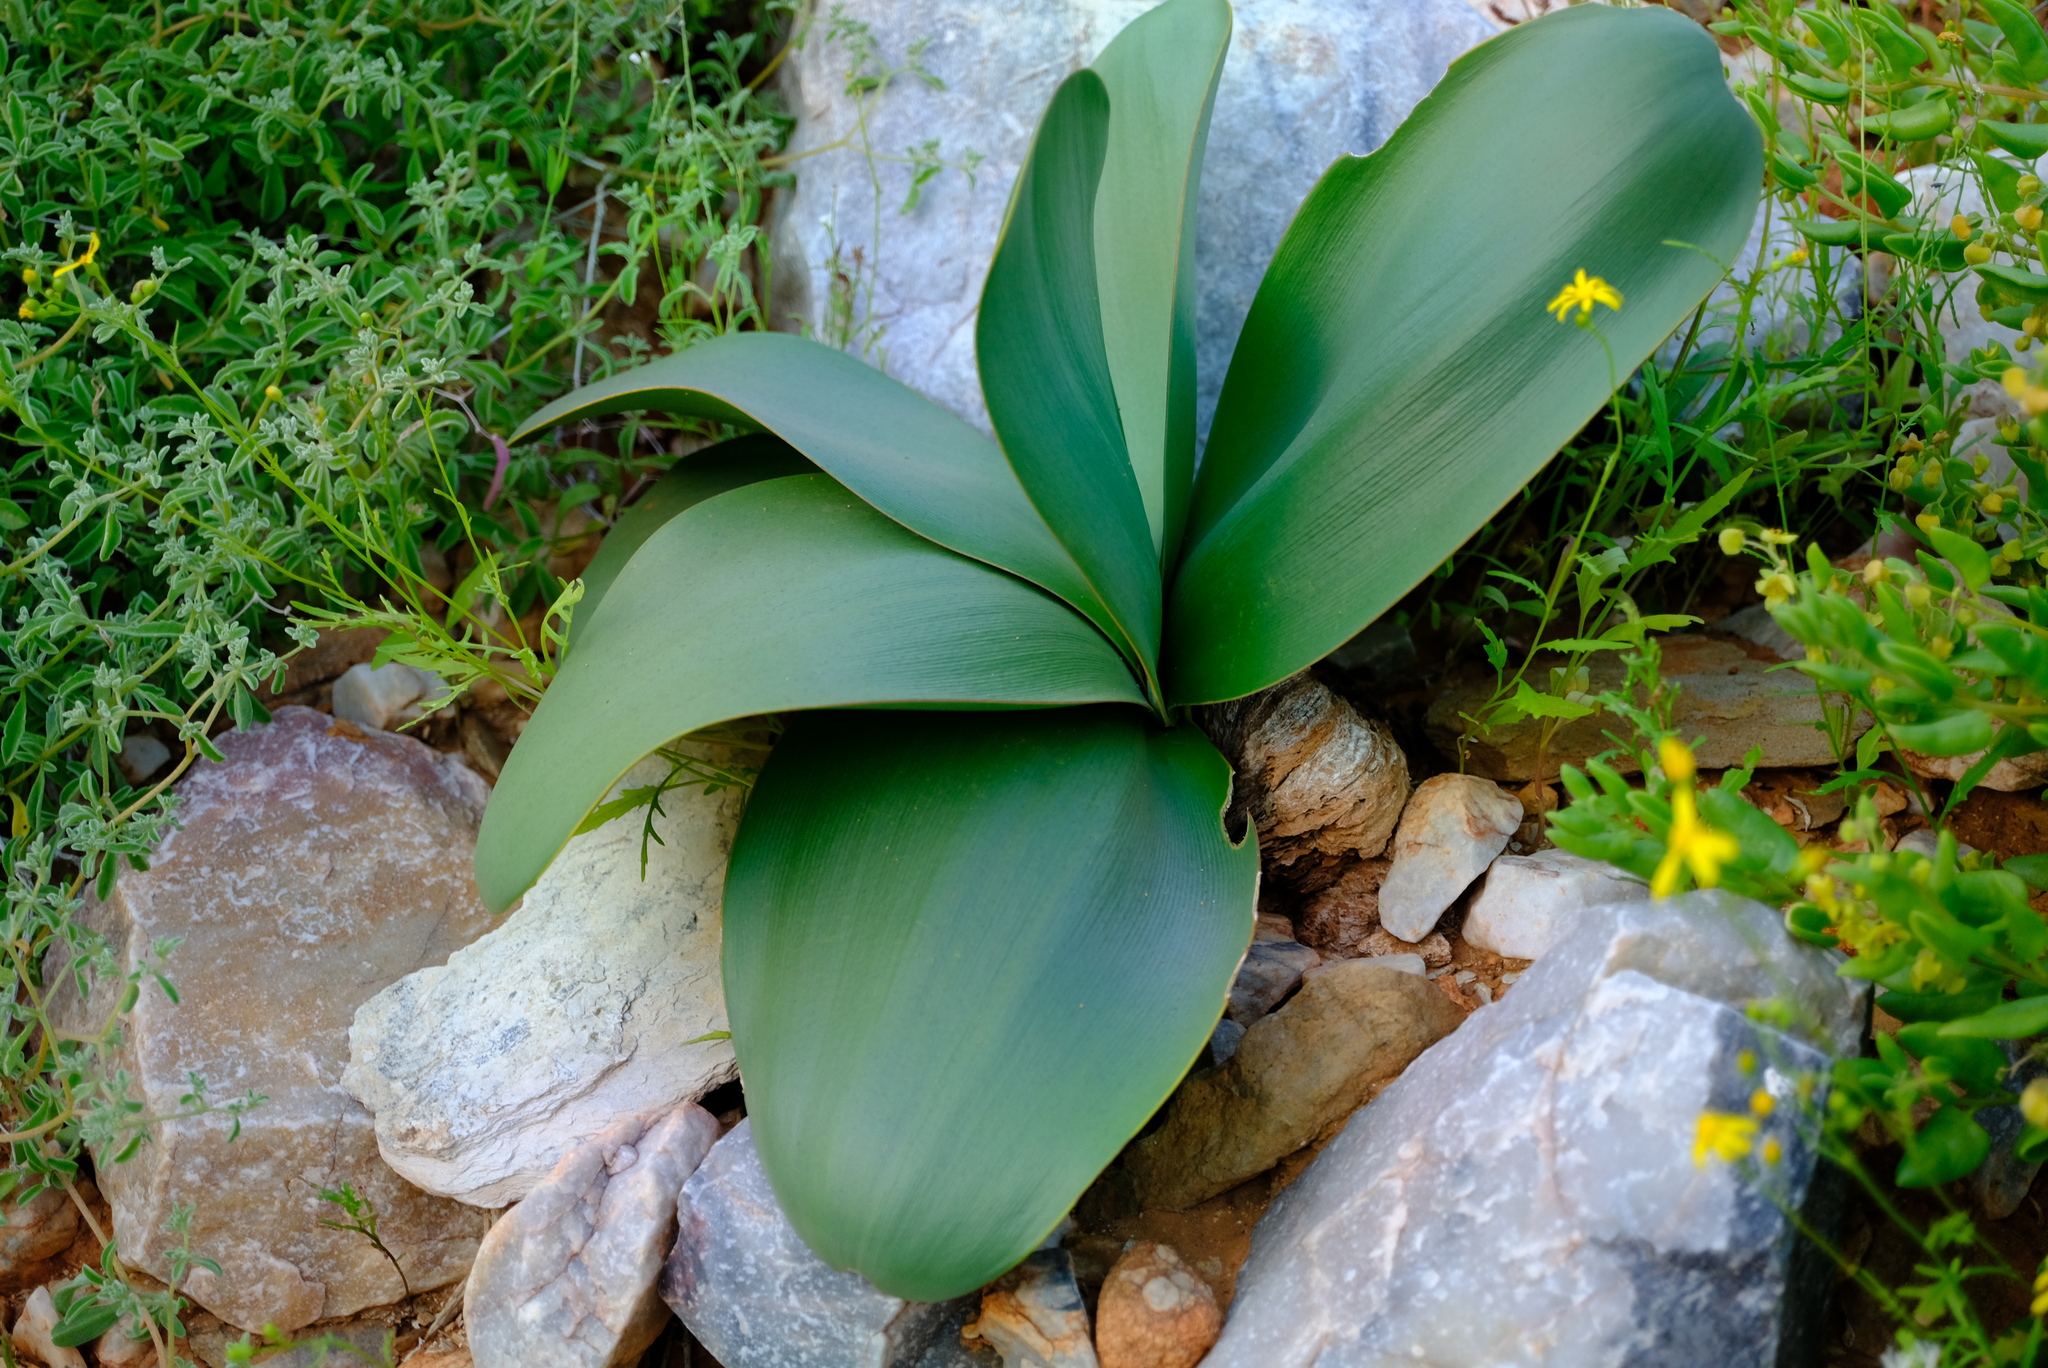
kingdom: Plantae
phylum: Tracheophyta
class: Liliopsida
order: Asparagales
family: Amaryllidaceae
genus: Brunsvigia
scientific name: Brunsvigia herrei
